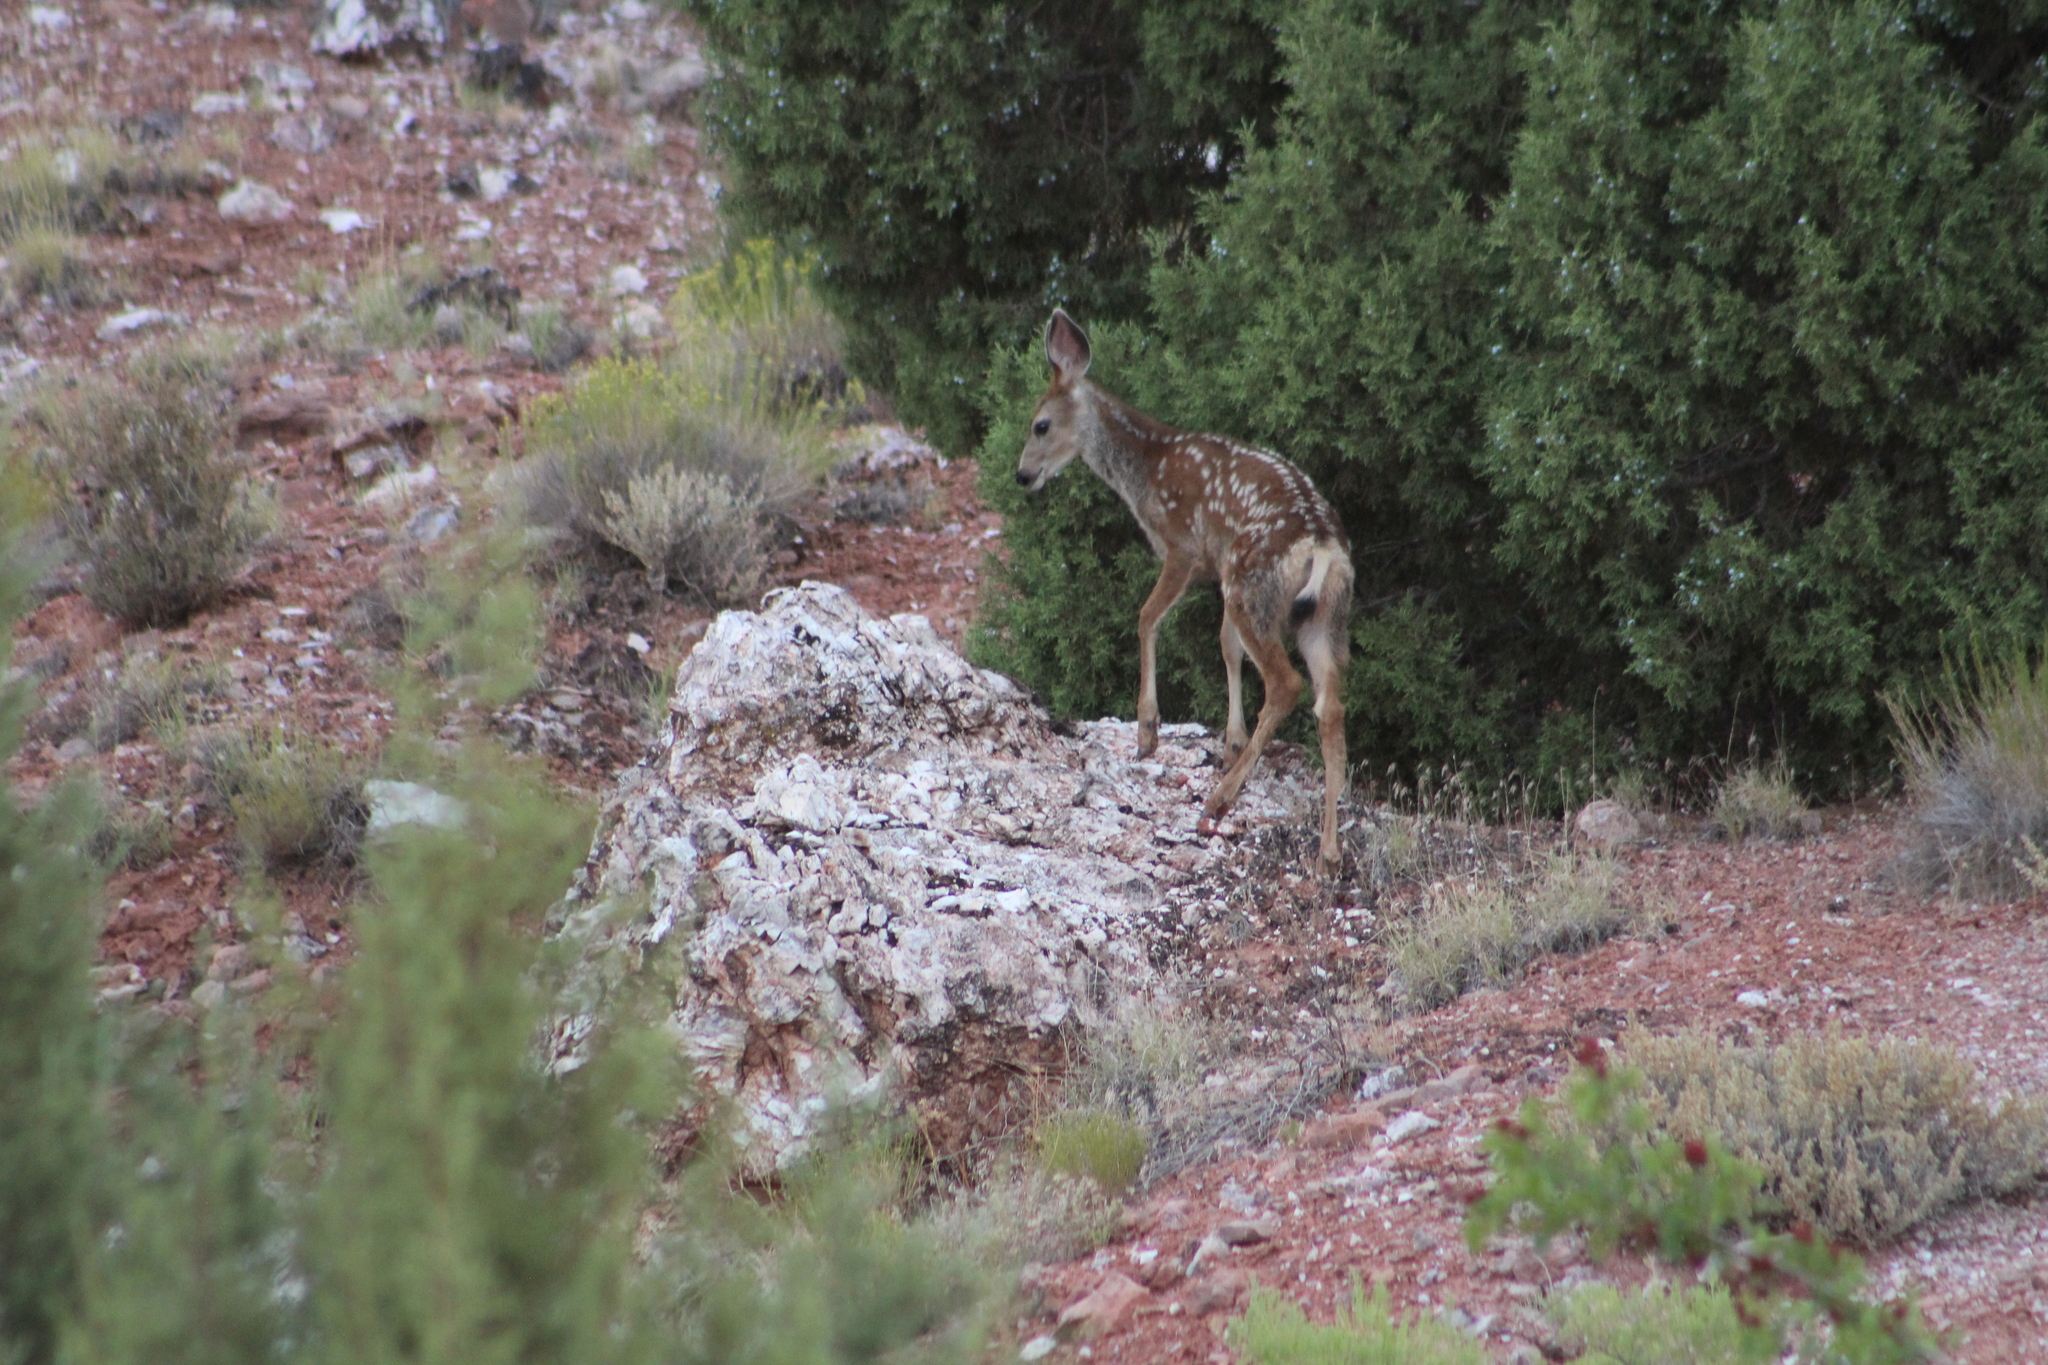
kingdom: Animalia
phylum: Chordata
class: Mammalia
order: Artiodactyla
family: Cervidae
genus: Odocoileus
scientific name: Odocoileus hemionus
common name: Mule deer
